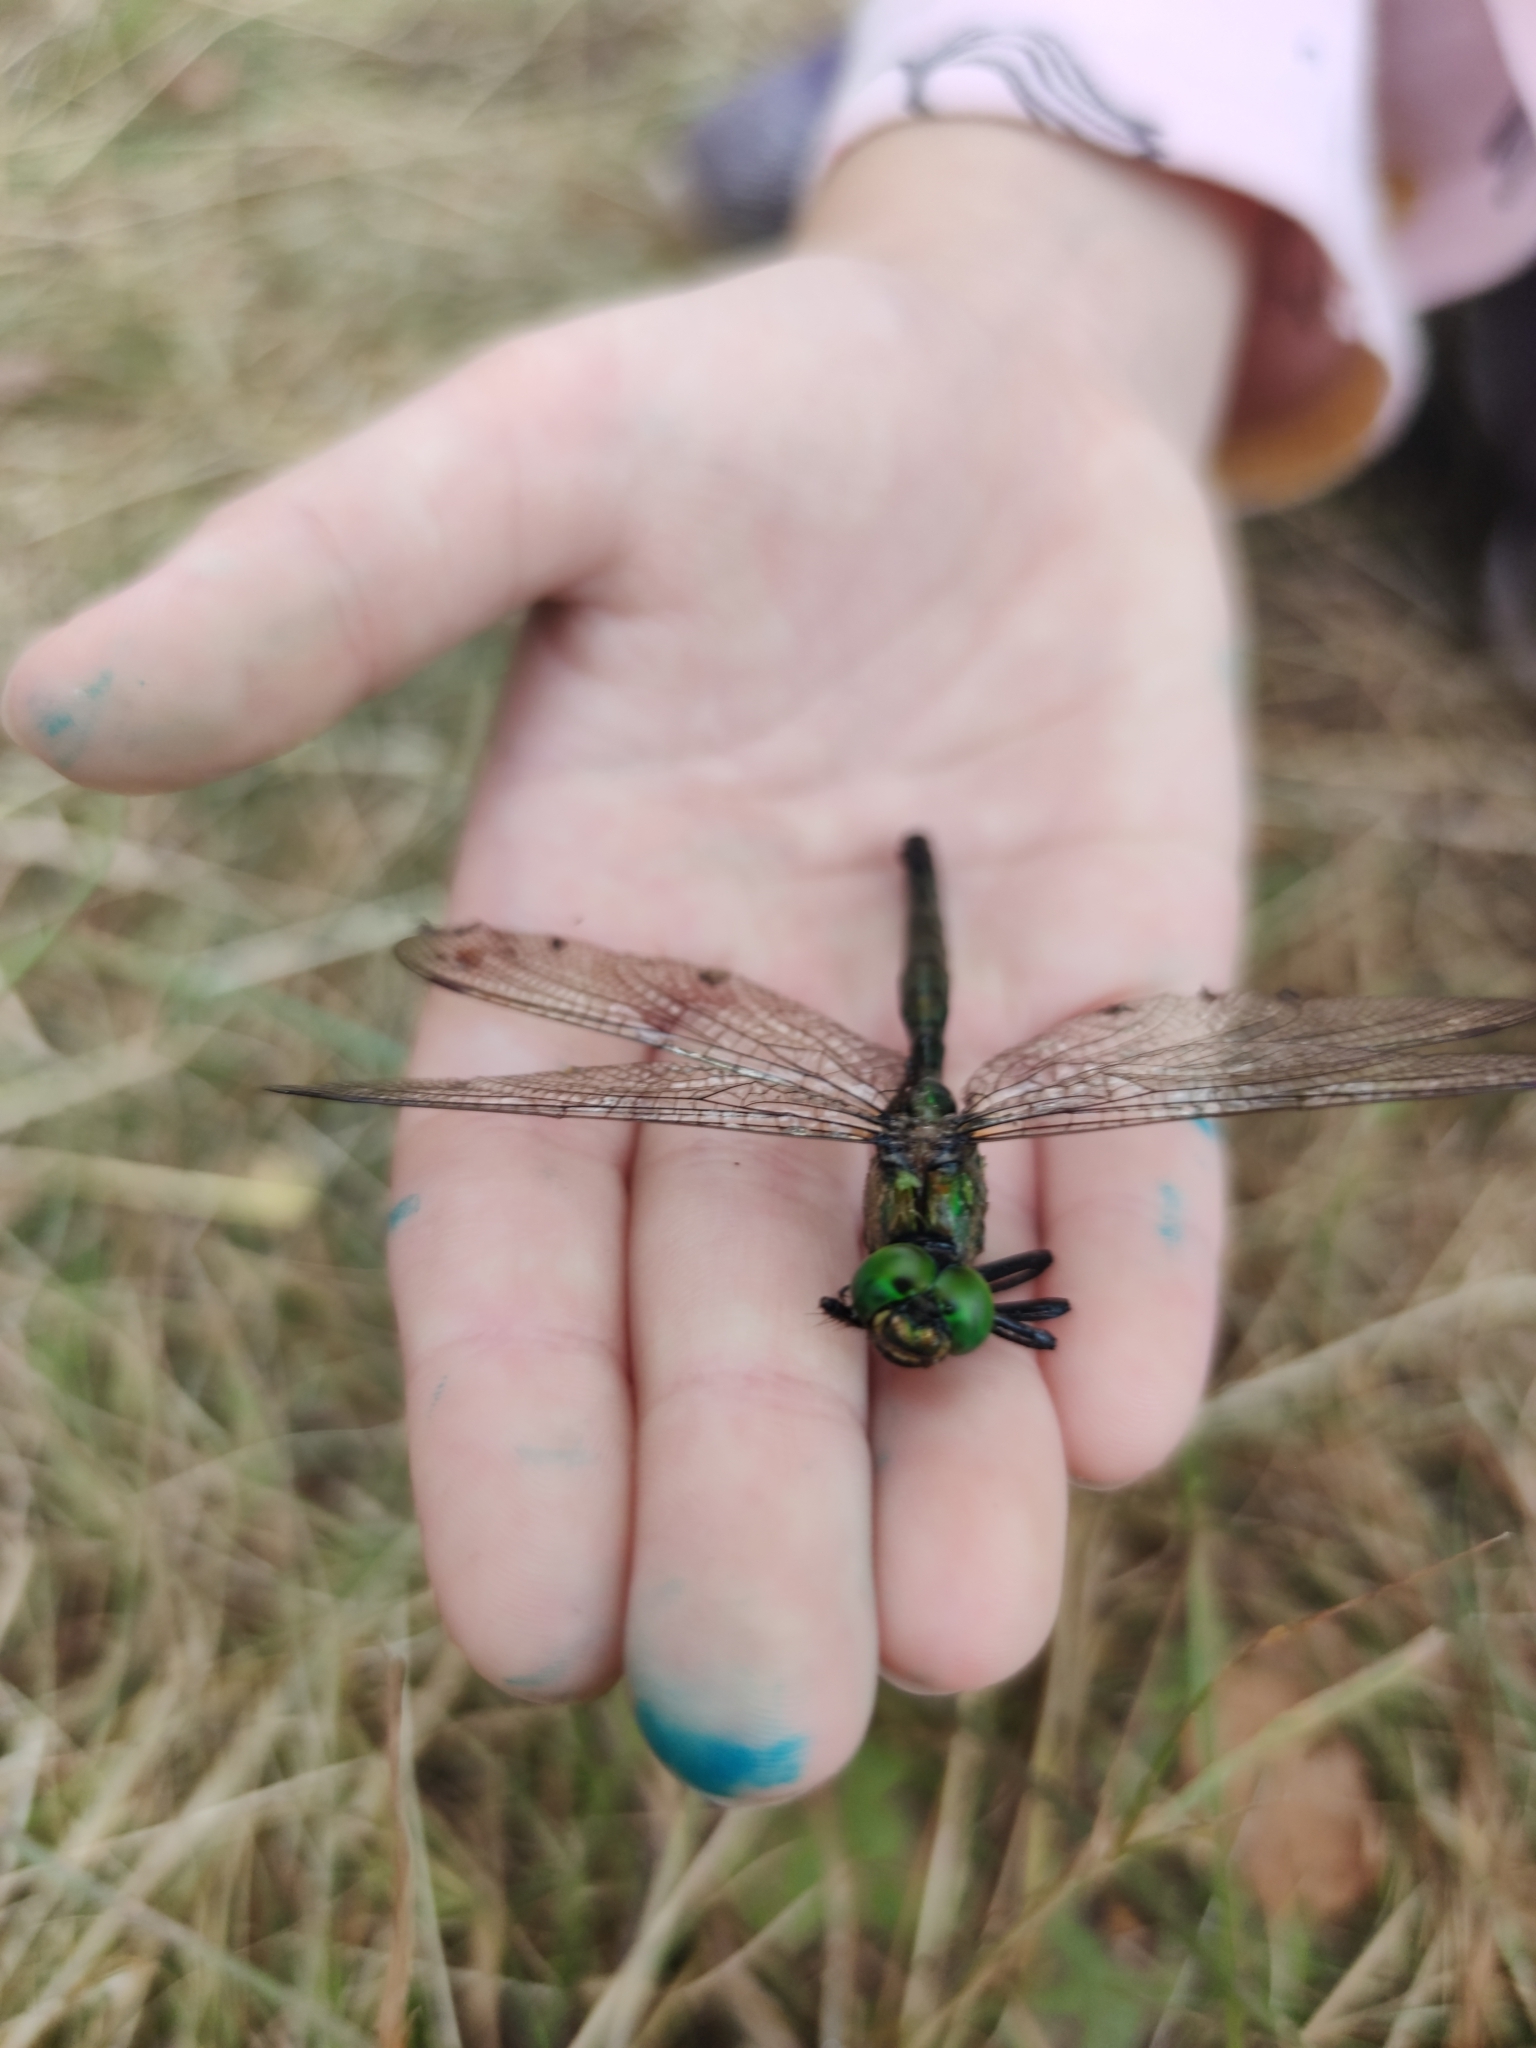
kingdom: Animalia
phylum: Arthropoda
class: Insecta
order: Odonata
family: Corduliidae
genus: Somatochlora
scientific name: Somatochlora metallica
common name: Brilliant emerald
